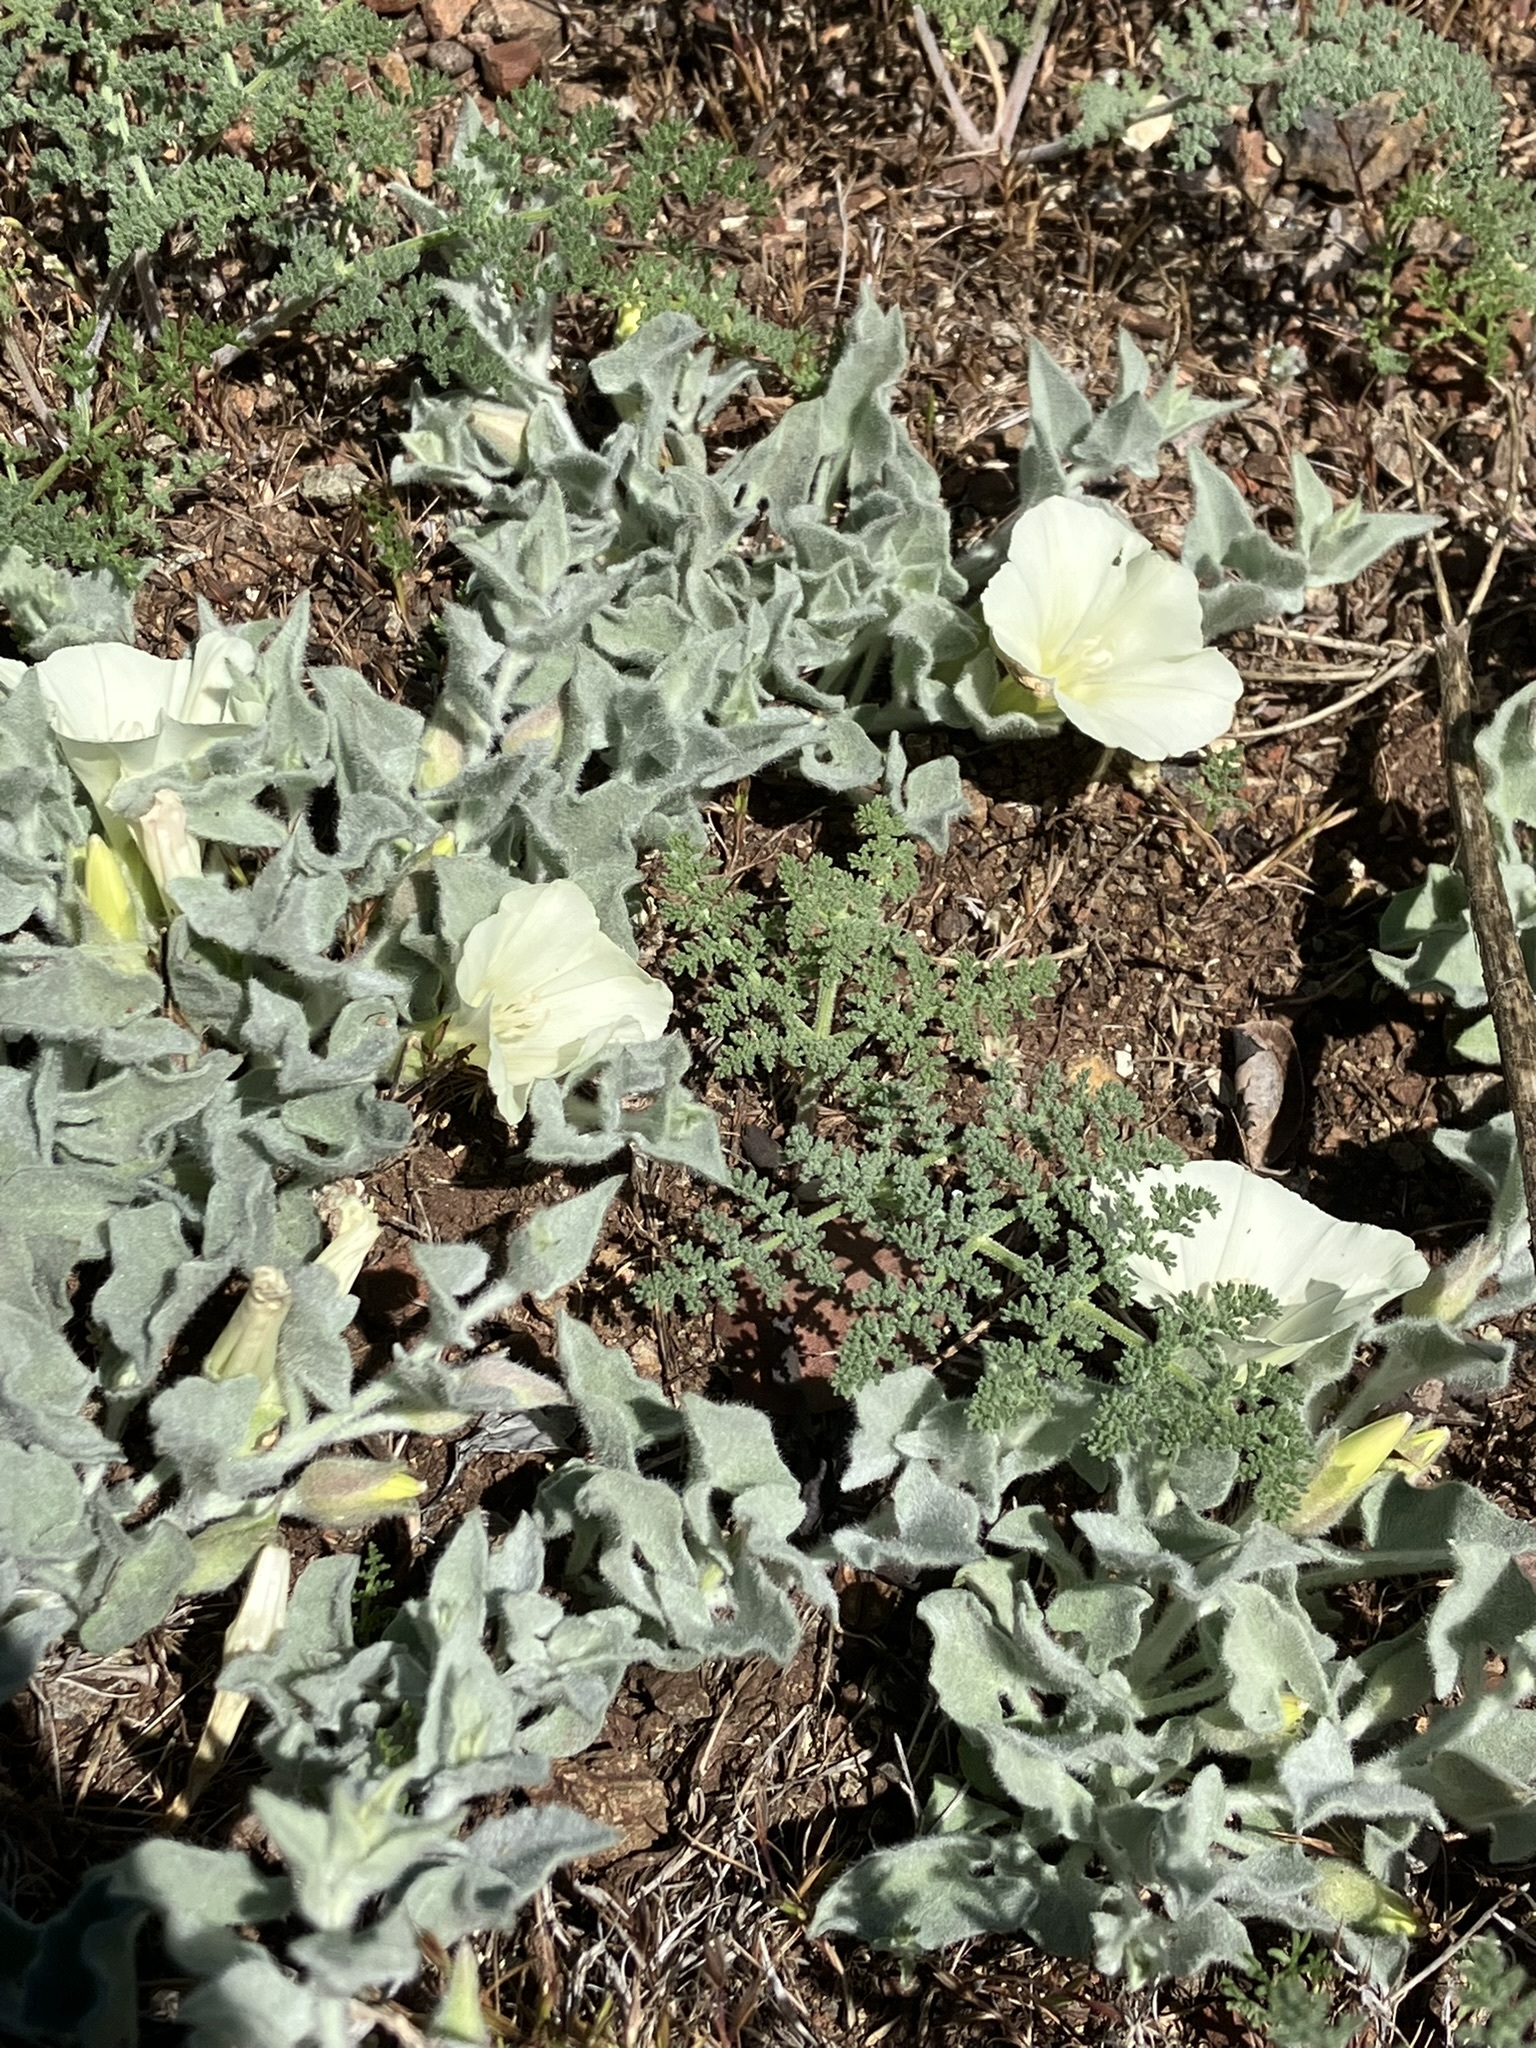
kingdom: Plantae
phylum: Tracheophyta
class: Magnoliopsida
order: Solanales
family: Convolvulaceae
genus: Calystegia
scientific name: Calystegia malacophylla
